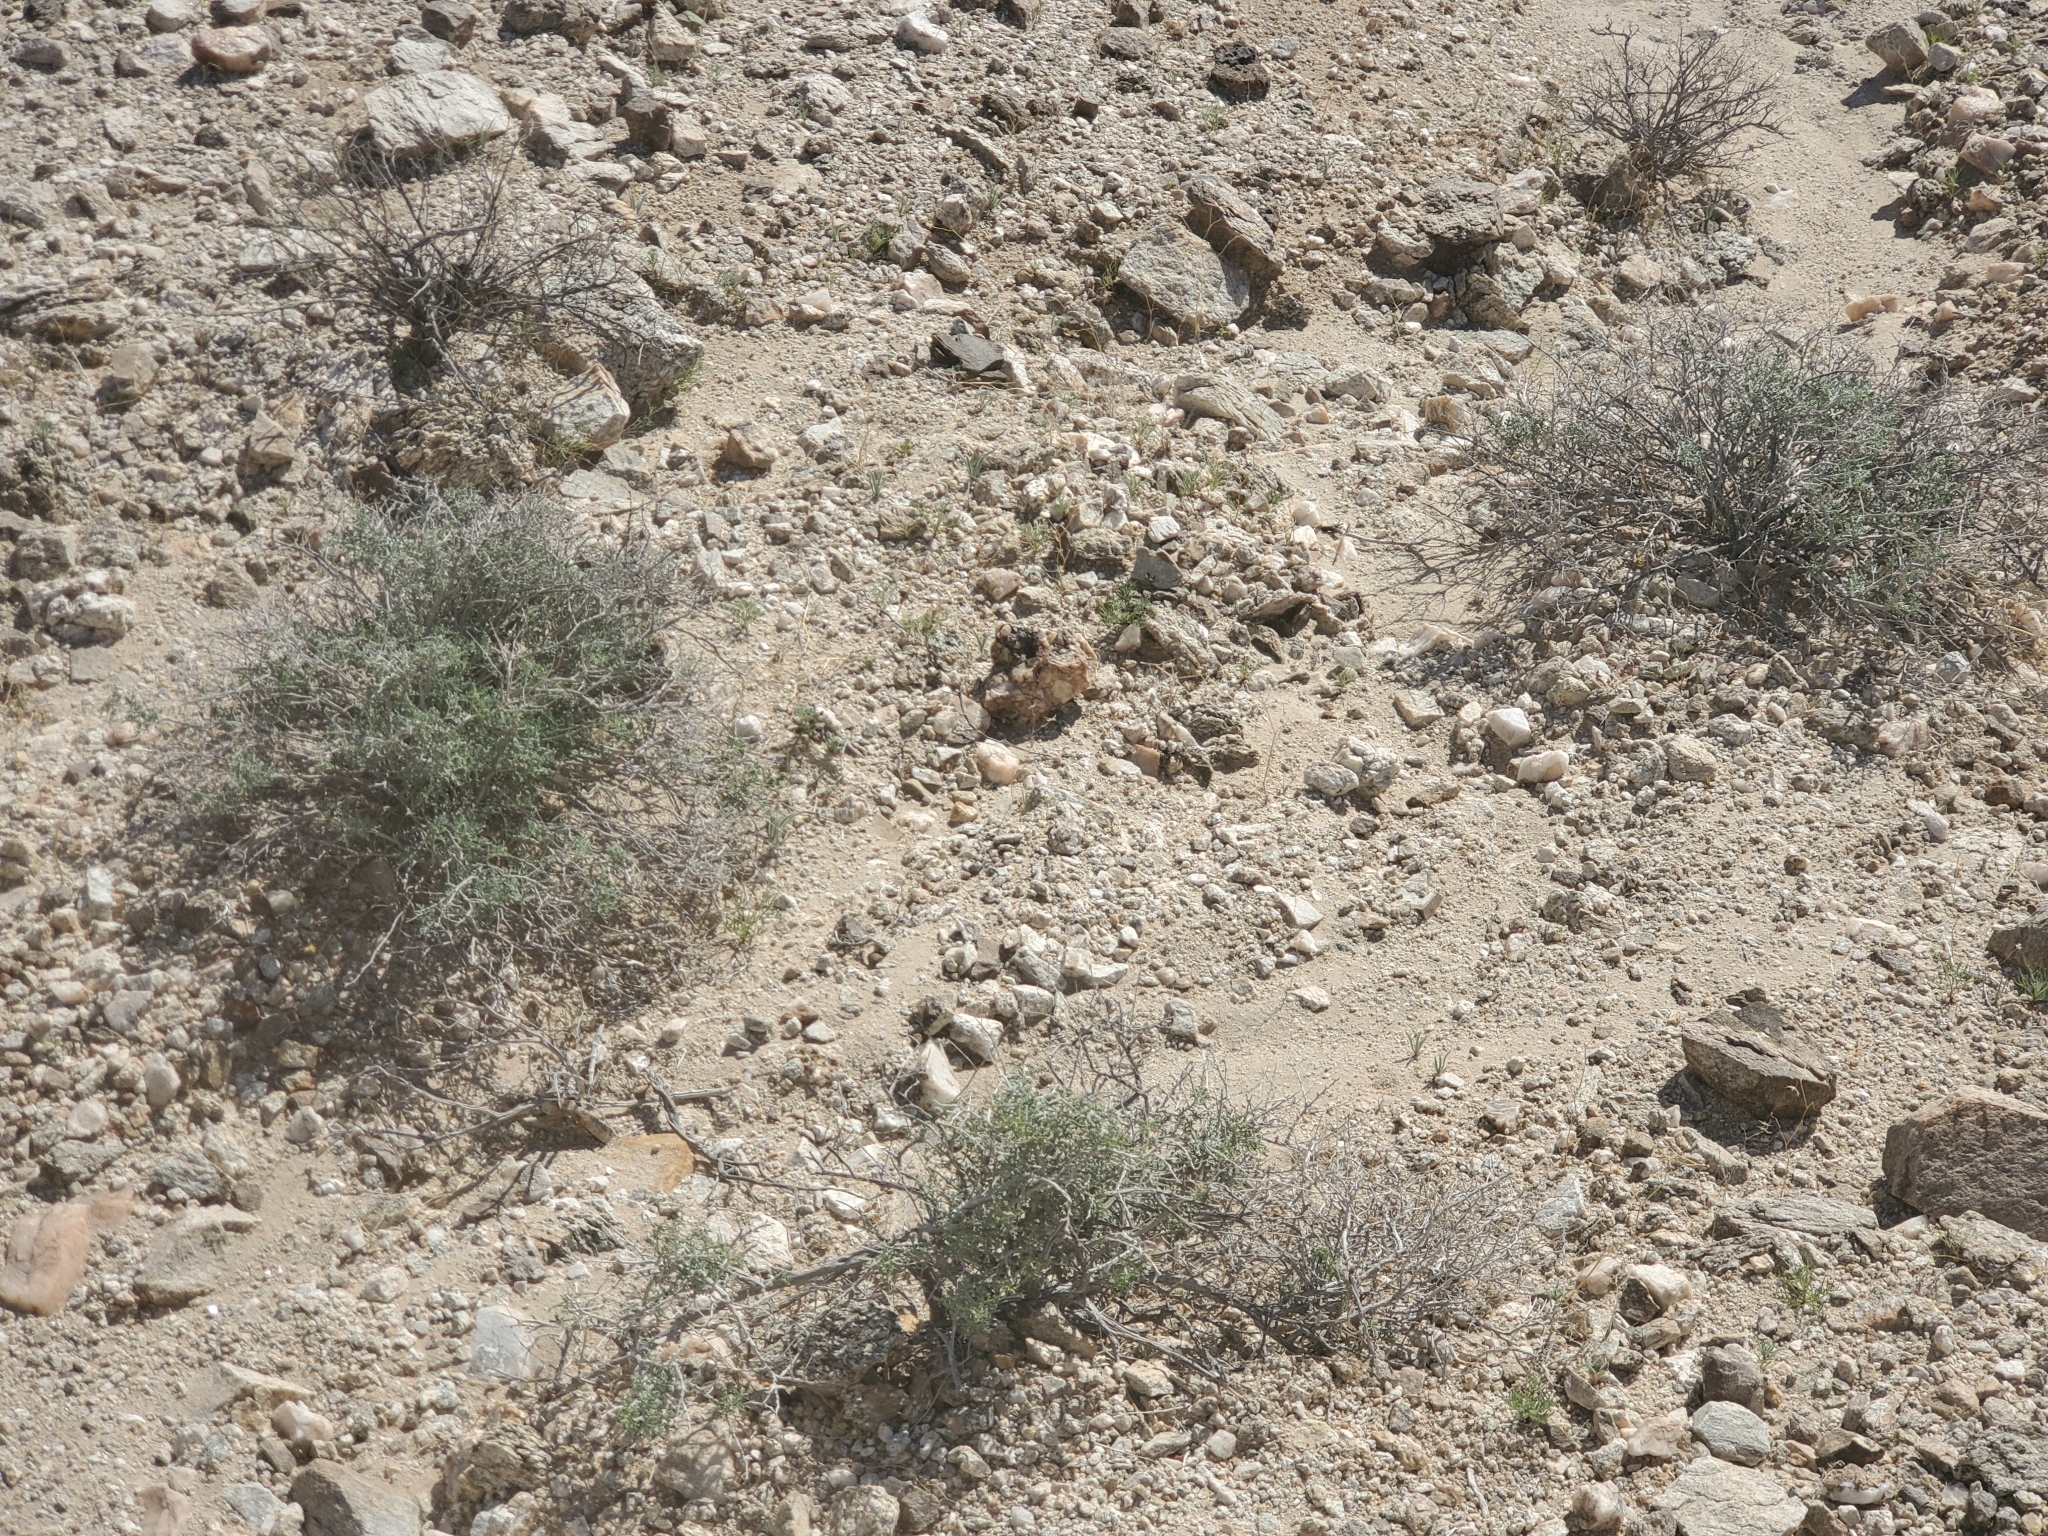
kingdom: Plantae
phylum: Tracheophyta
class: Magnoliopsida
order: Asterales
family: Asteraceae
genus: Ambrosia
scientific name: Ambrosia dumosa
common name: Bur-sage
